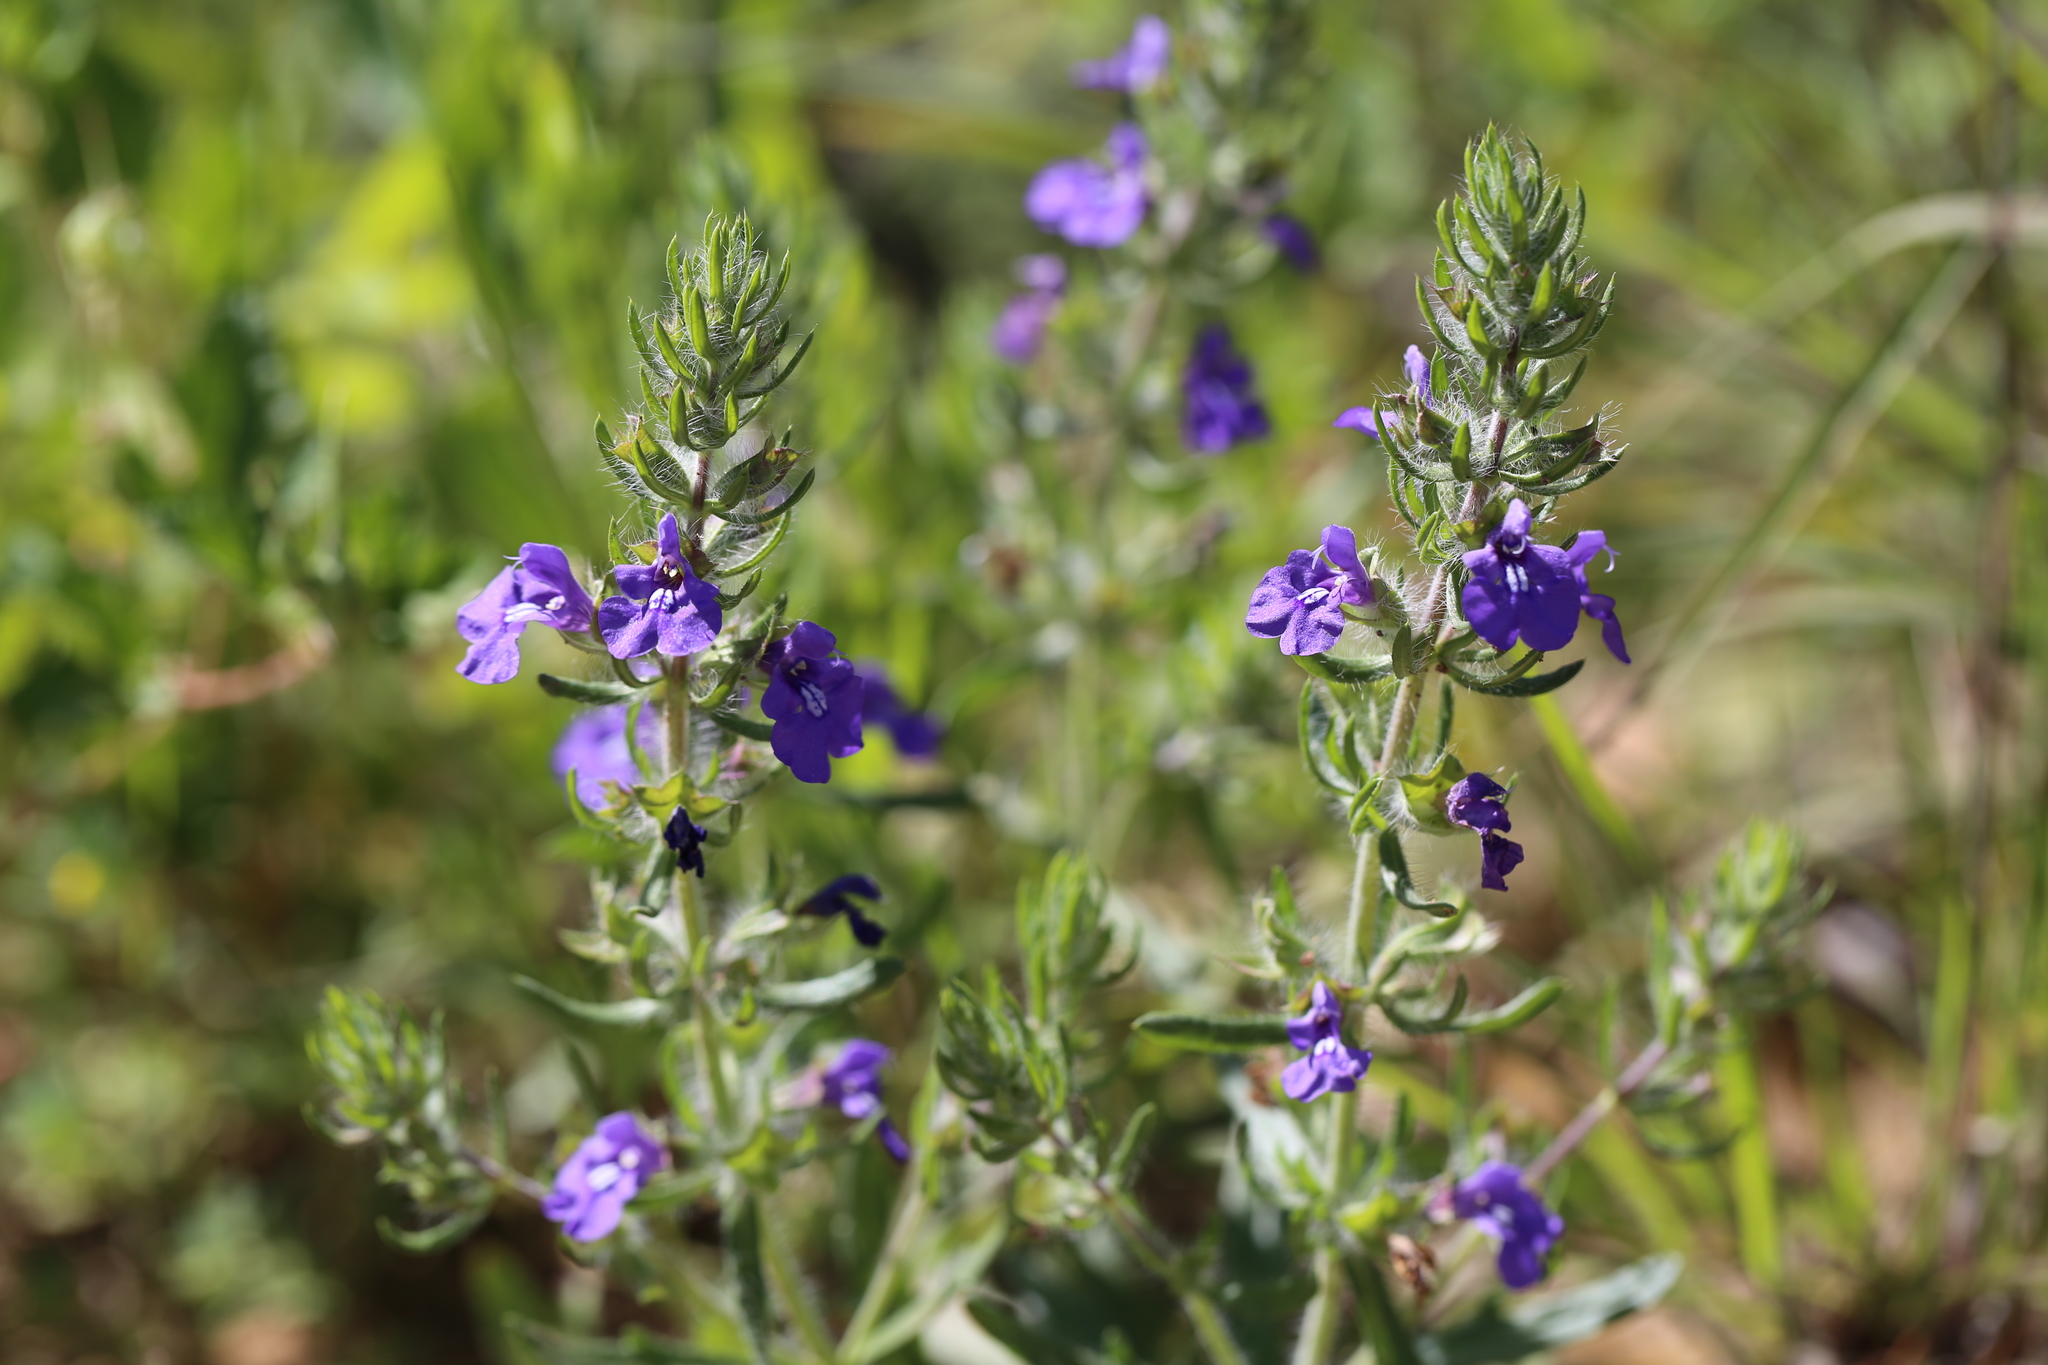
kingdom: Plantae
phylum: Tracheophyta
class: Magnoliopsida
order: Lamiales
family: Lamiaceae
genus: Salvia
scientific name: Salvia texana
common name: Texas sage
